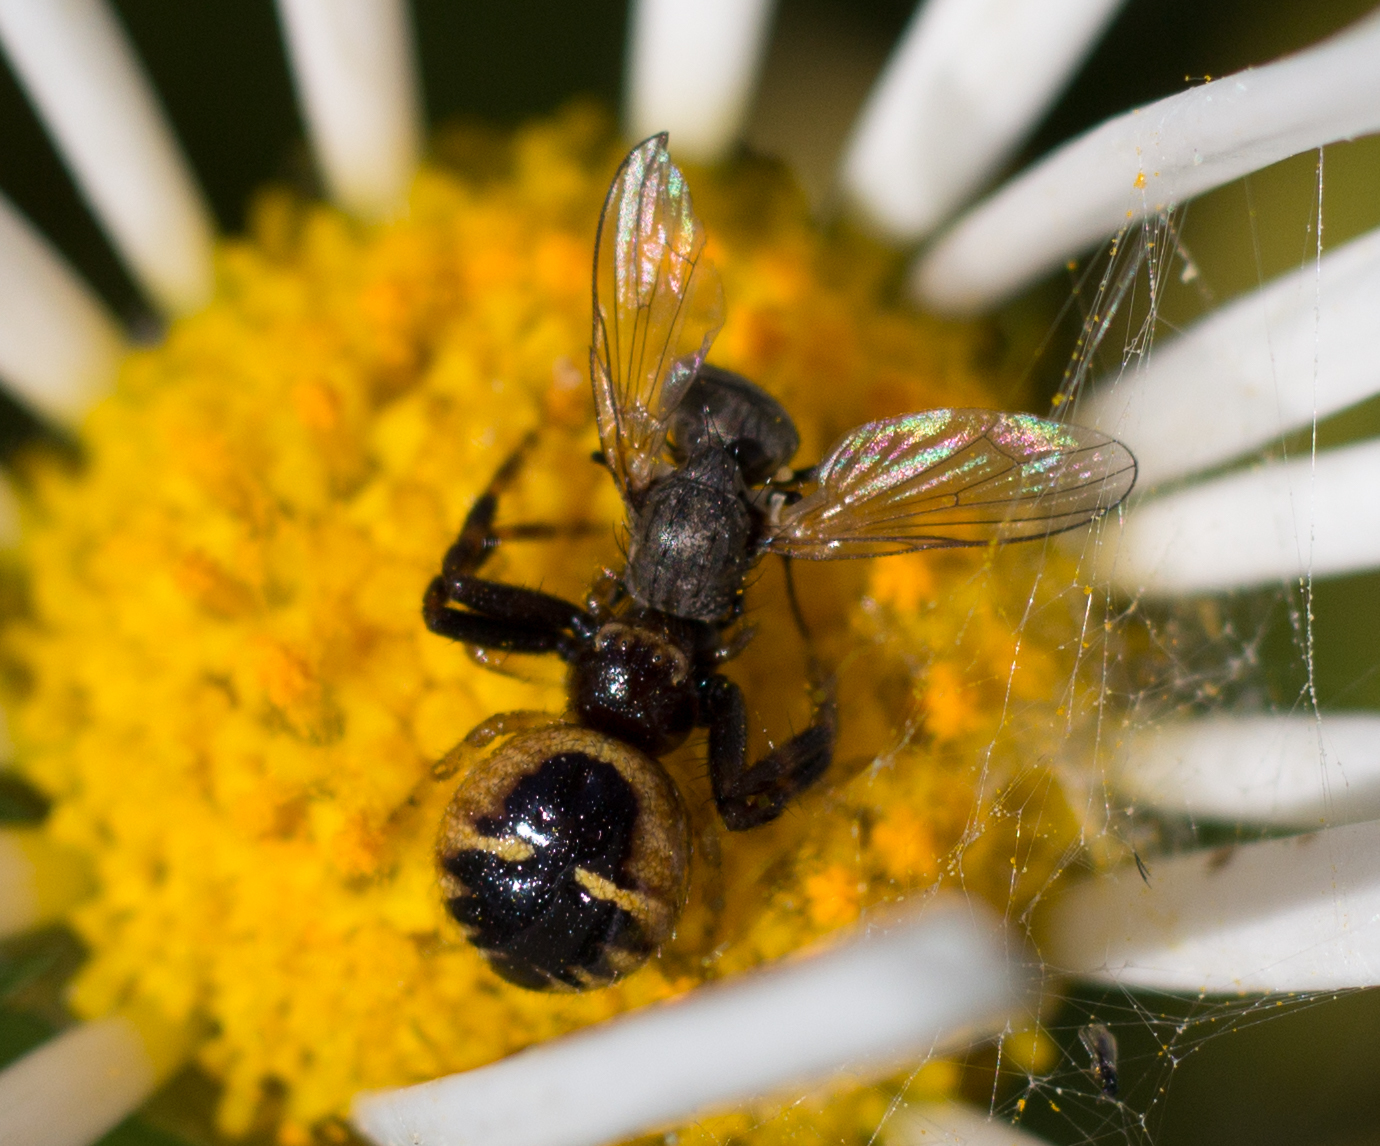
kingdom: Animalia
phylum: Arthropoda
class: Arachnida
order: Araneae
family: Thomisidae
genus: Synema
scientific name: Synema globosum
